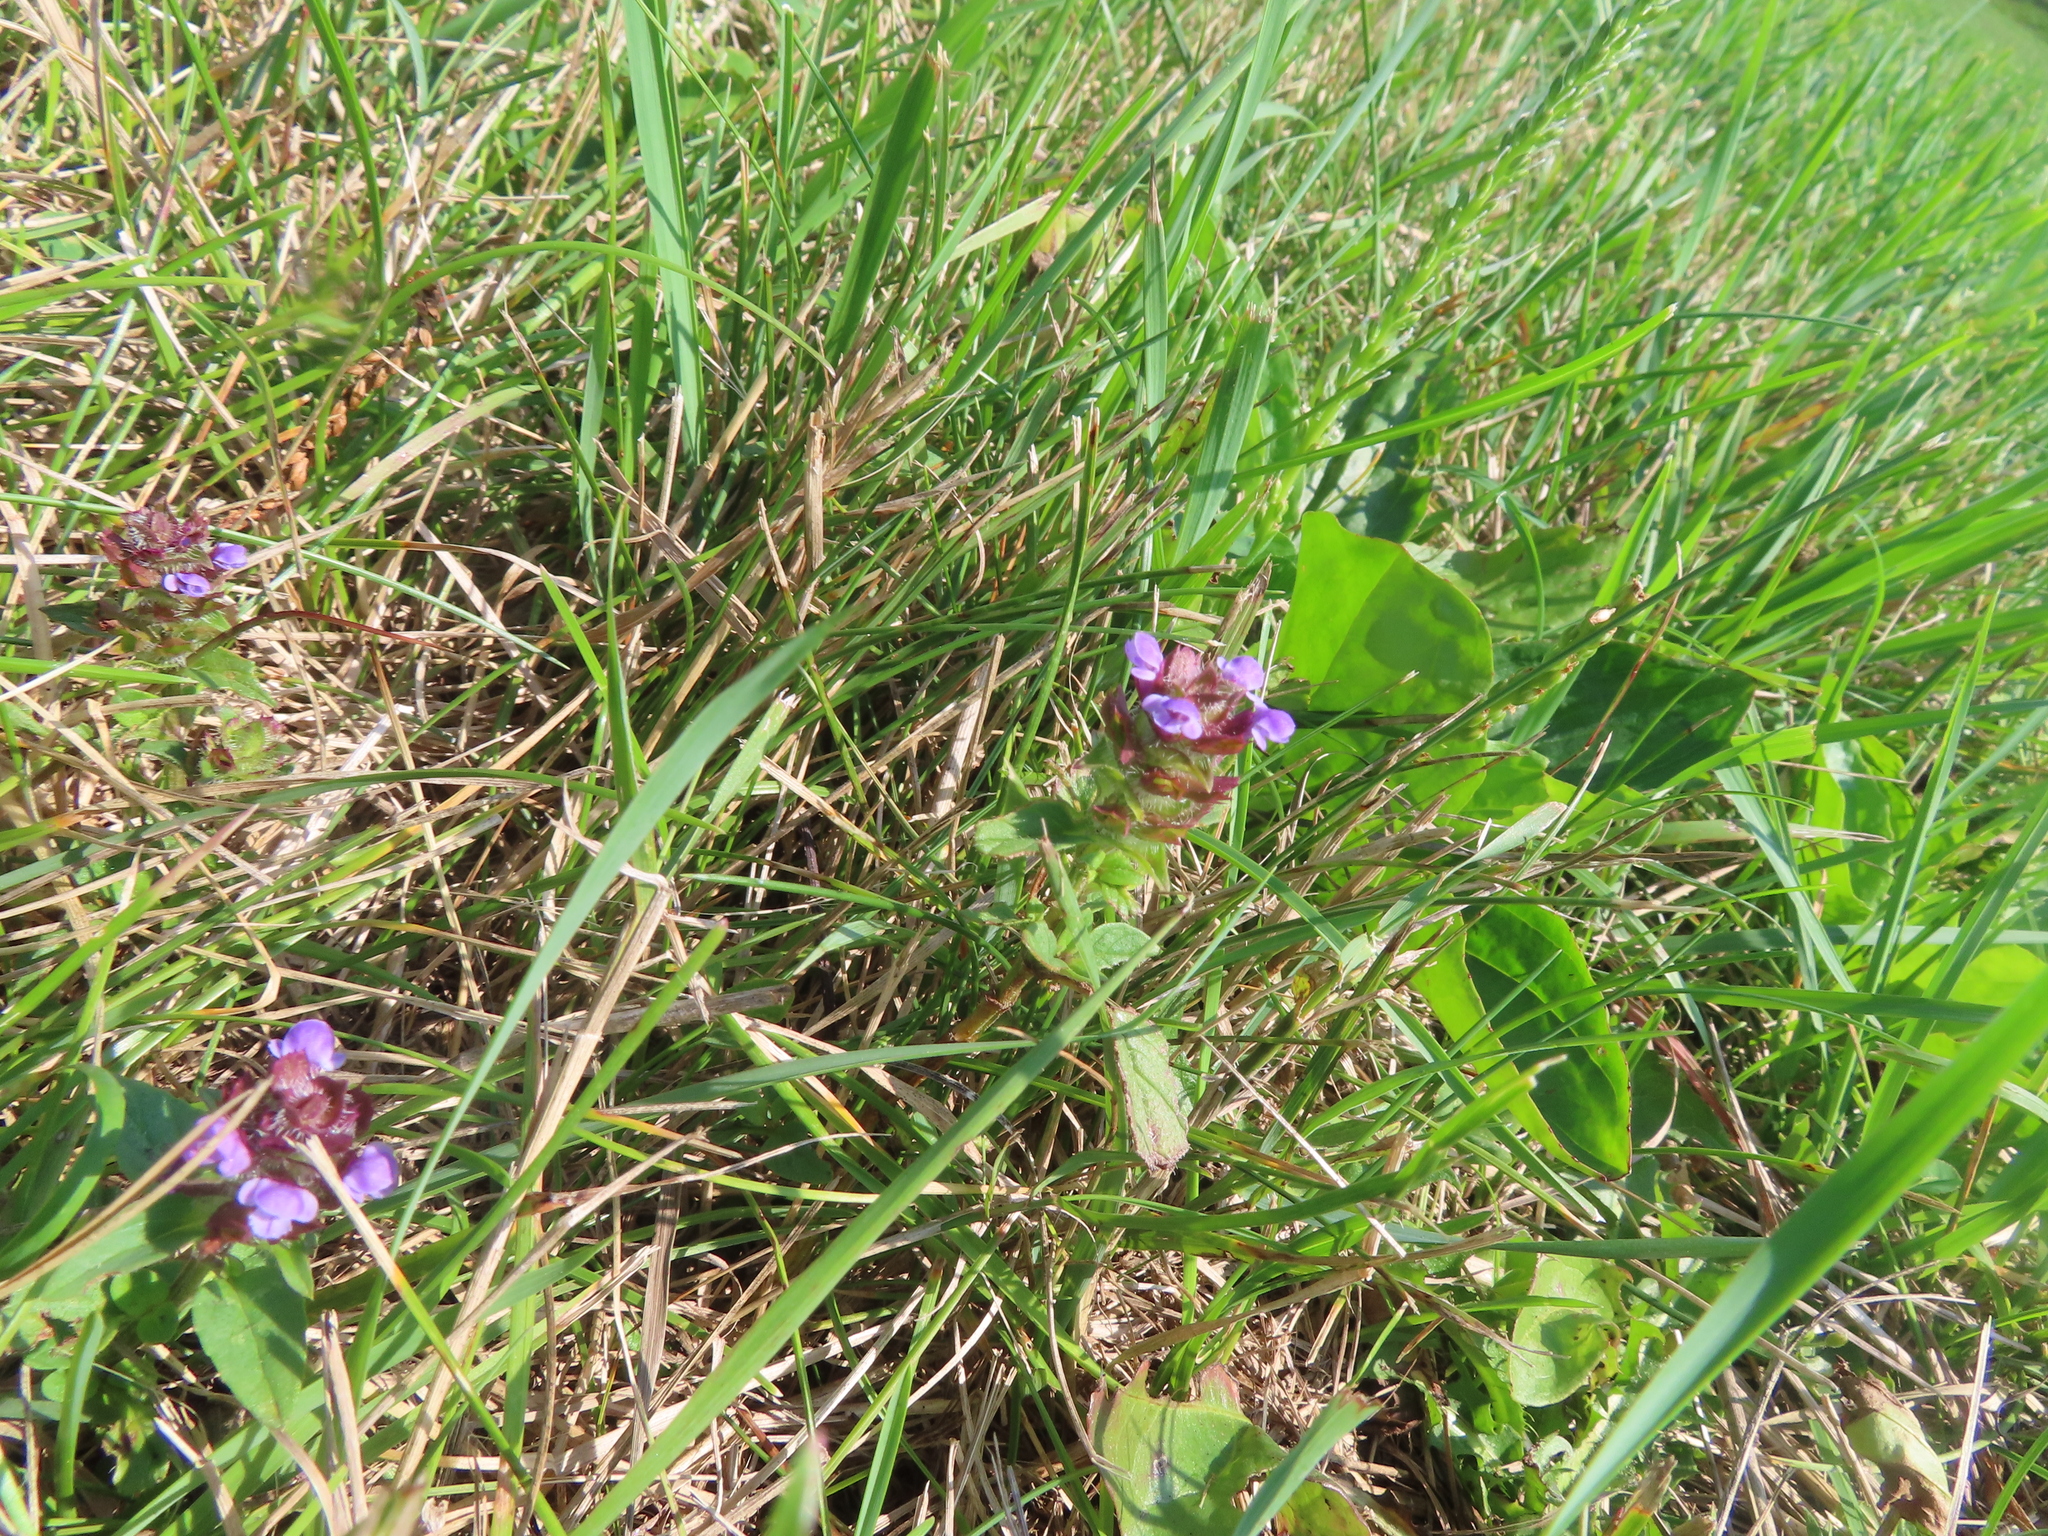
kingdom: Plantae
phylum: Tracheophyta
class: Magnoliopsida
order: Lamiales
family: Lamiaceae
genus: Prunella
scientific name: Prunella vulgaris
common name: Heal-all
